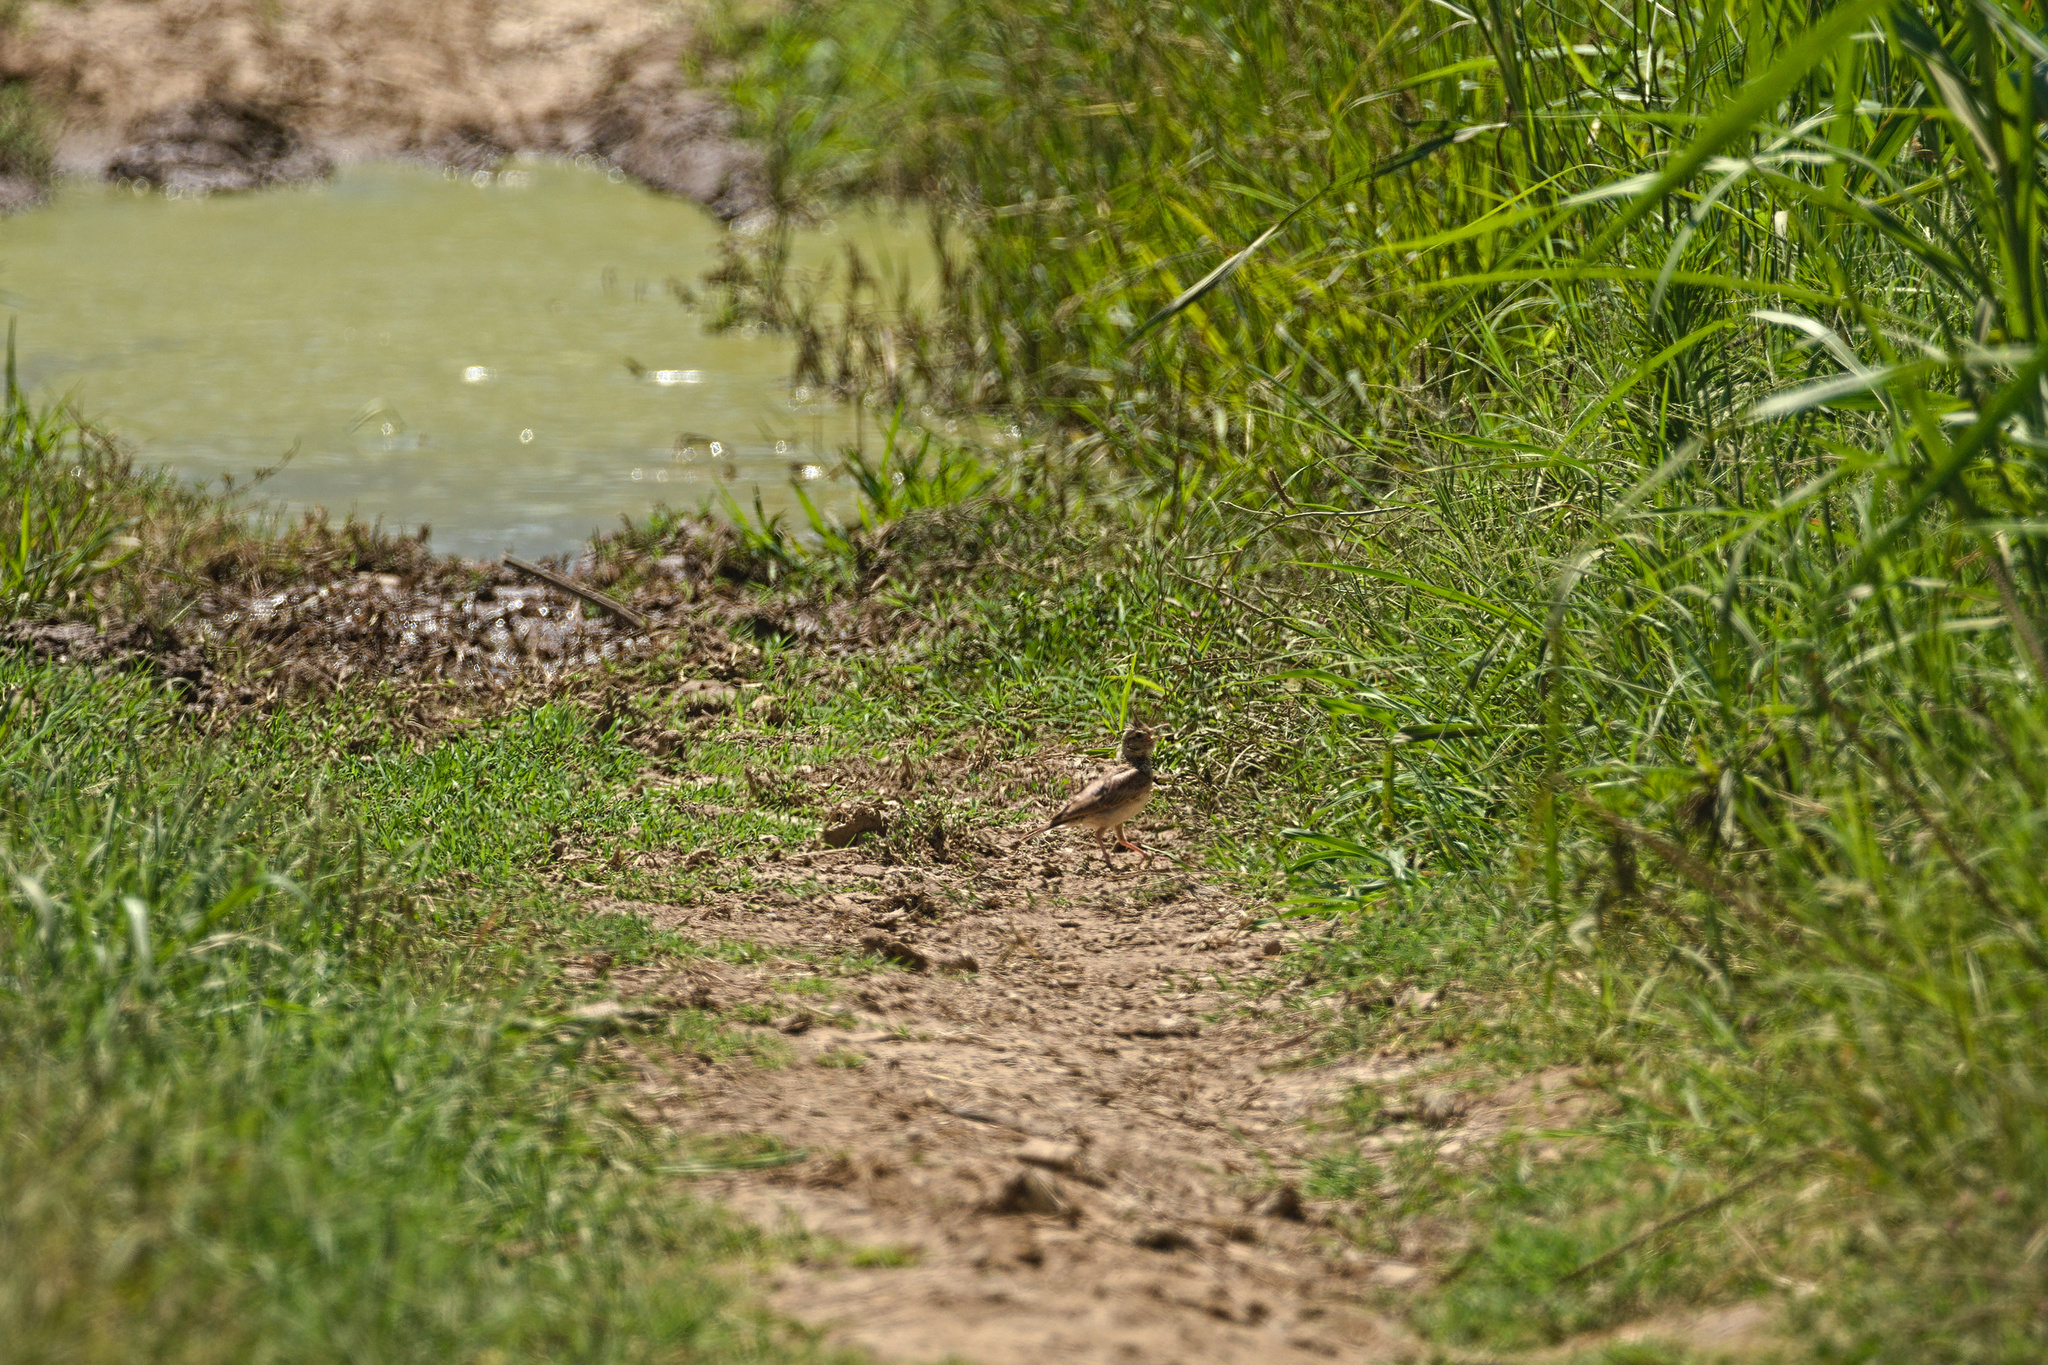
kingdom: Animalia
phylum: Chordata
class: Aves
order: Passeriformes
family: Alaudidae
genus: Galerida
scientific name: Galerida cristata
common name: Crested lark
